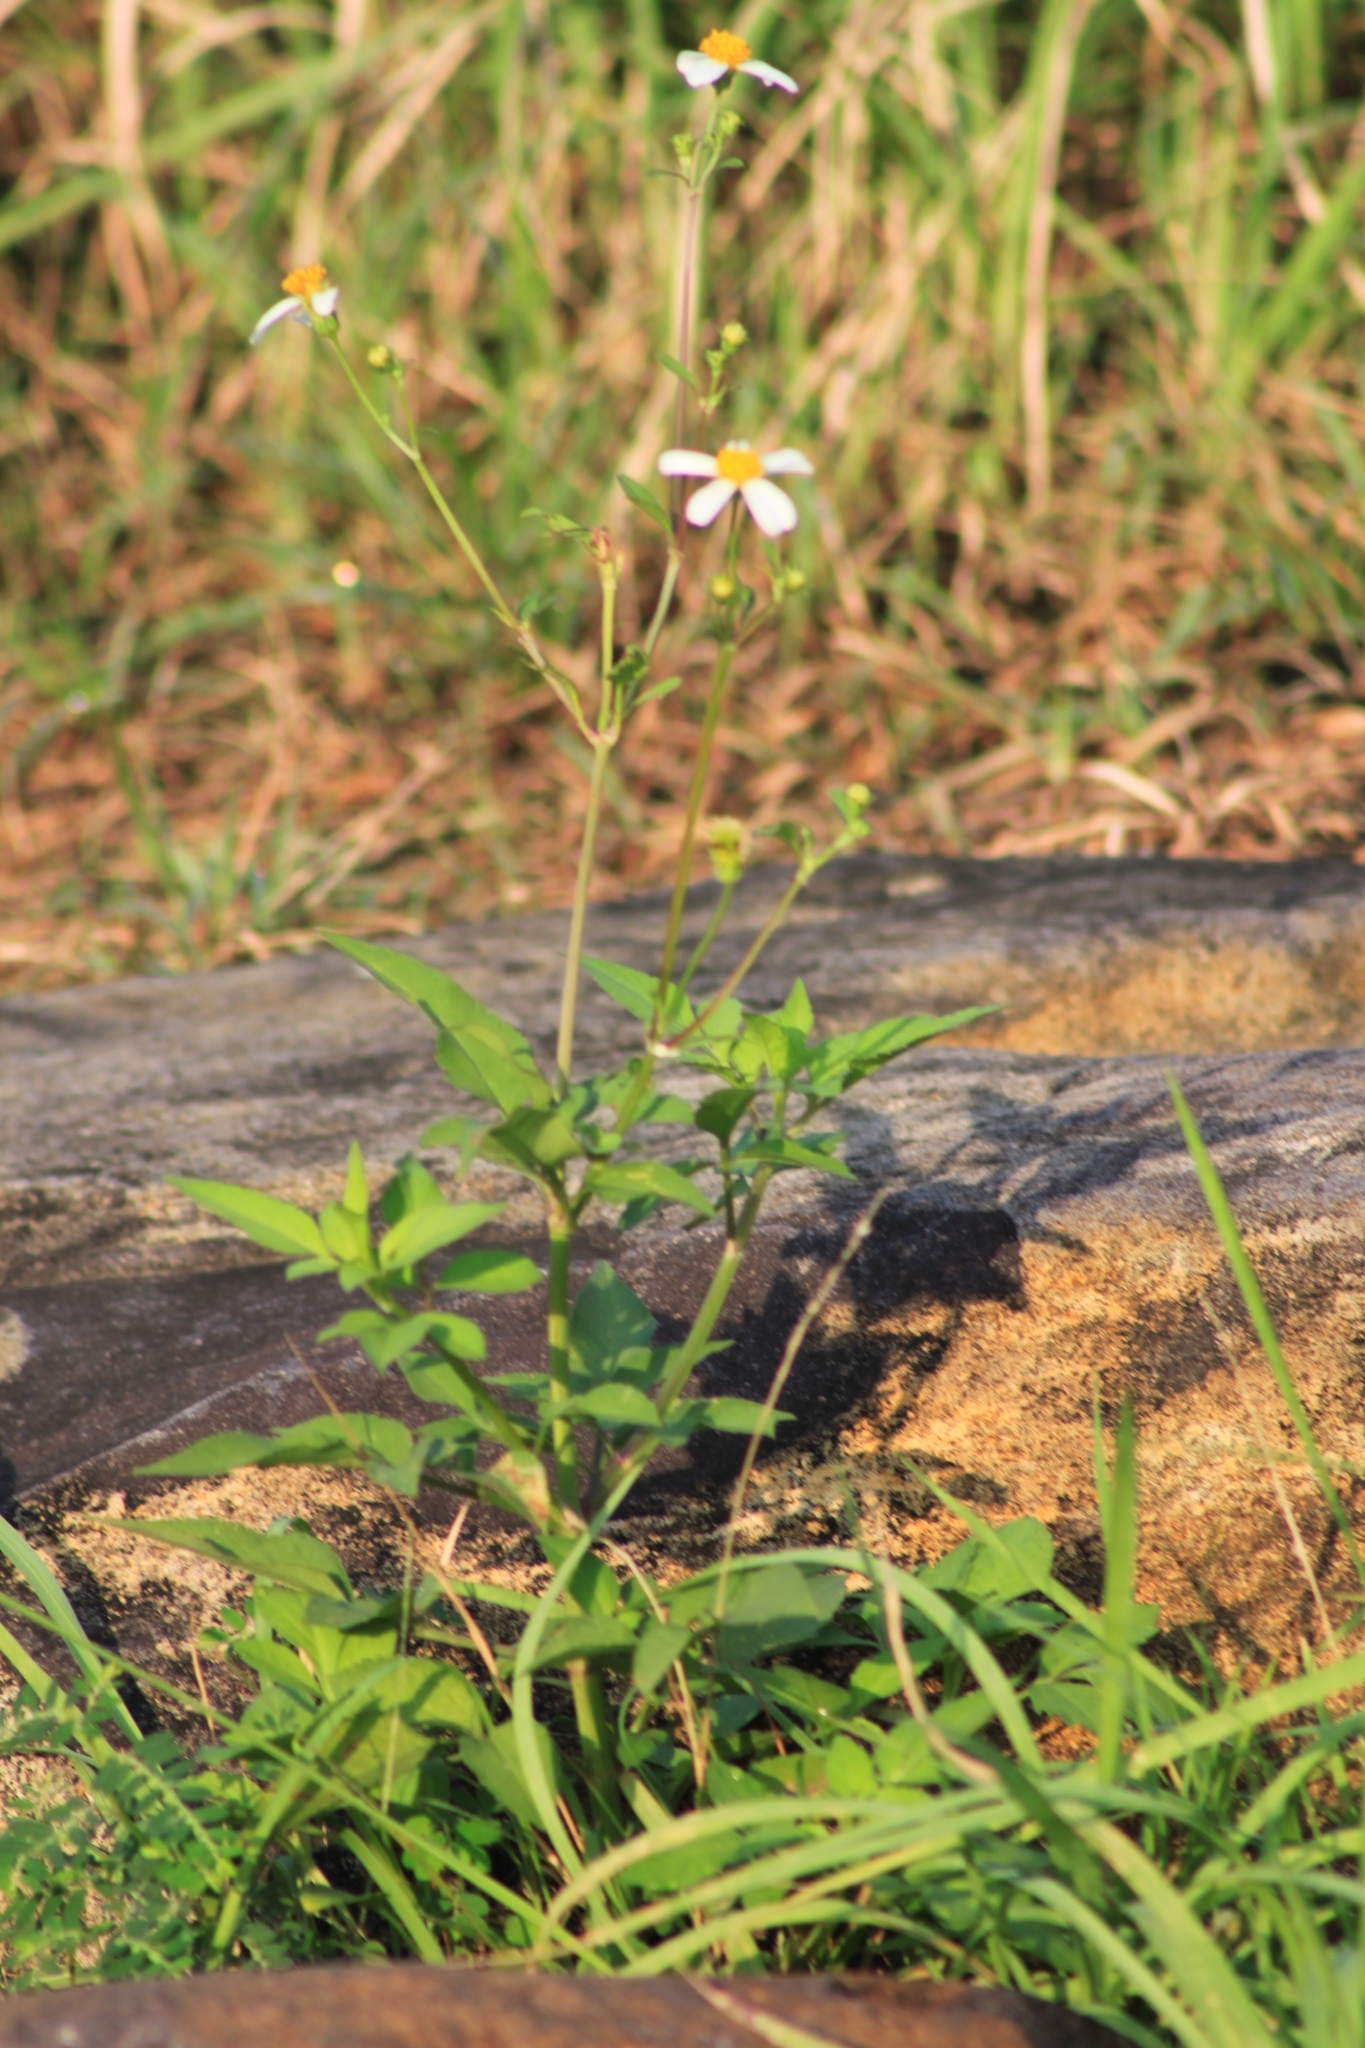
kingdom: Plantae
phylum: Tracheophyta
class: Magnoliopsida
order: Asterales
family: Asteraceae
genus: Bidens
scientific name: Bidens alba
